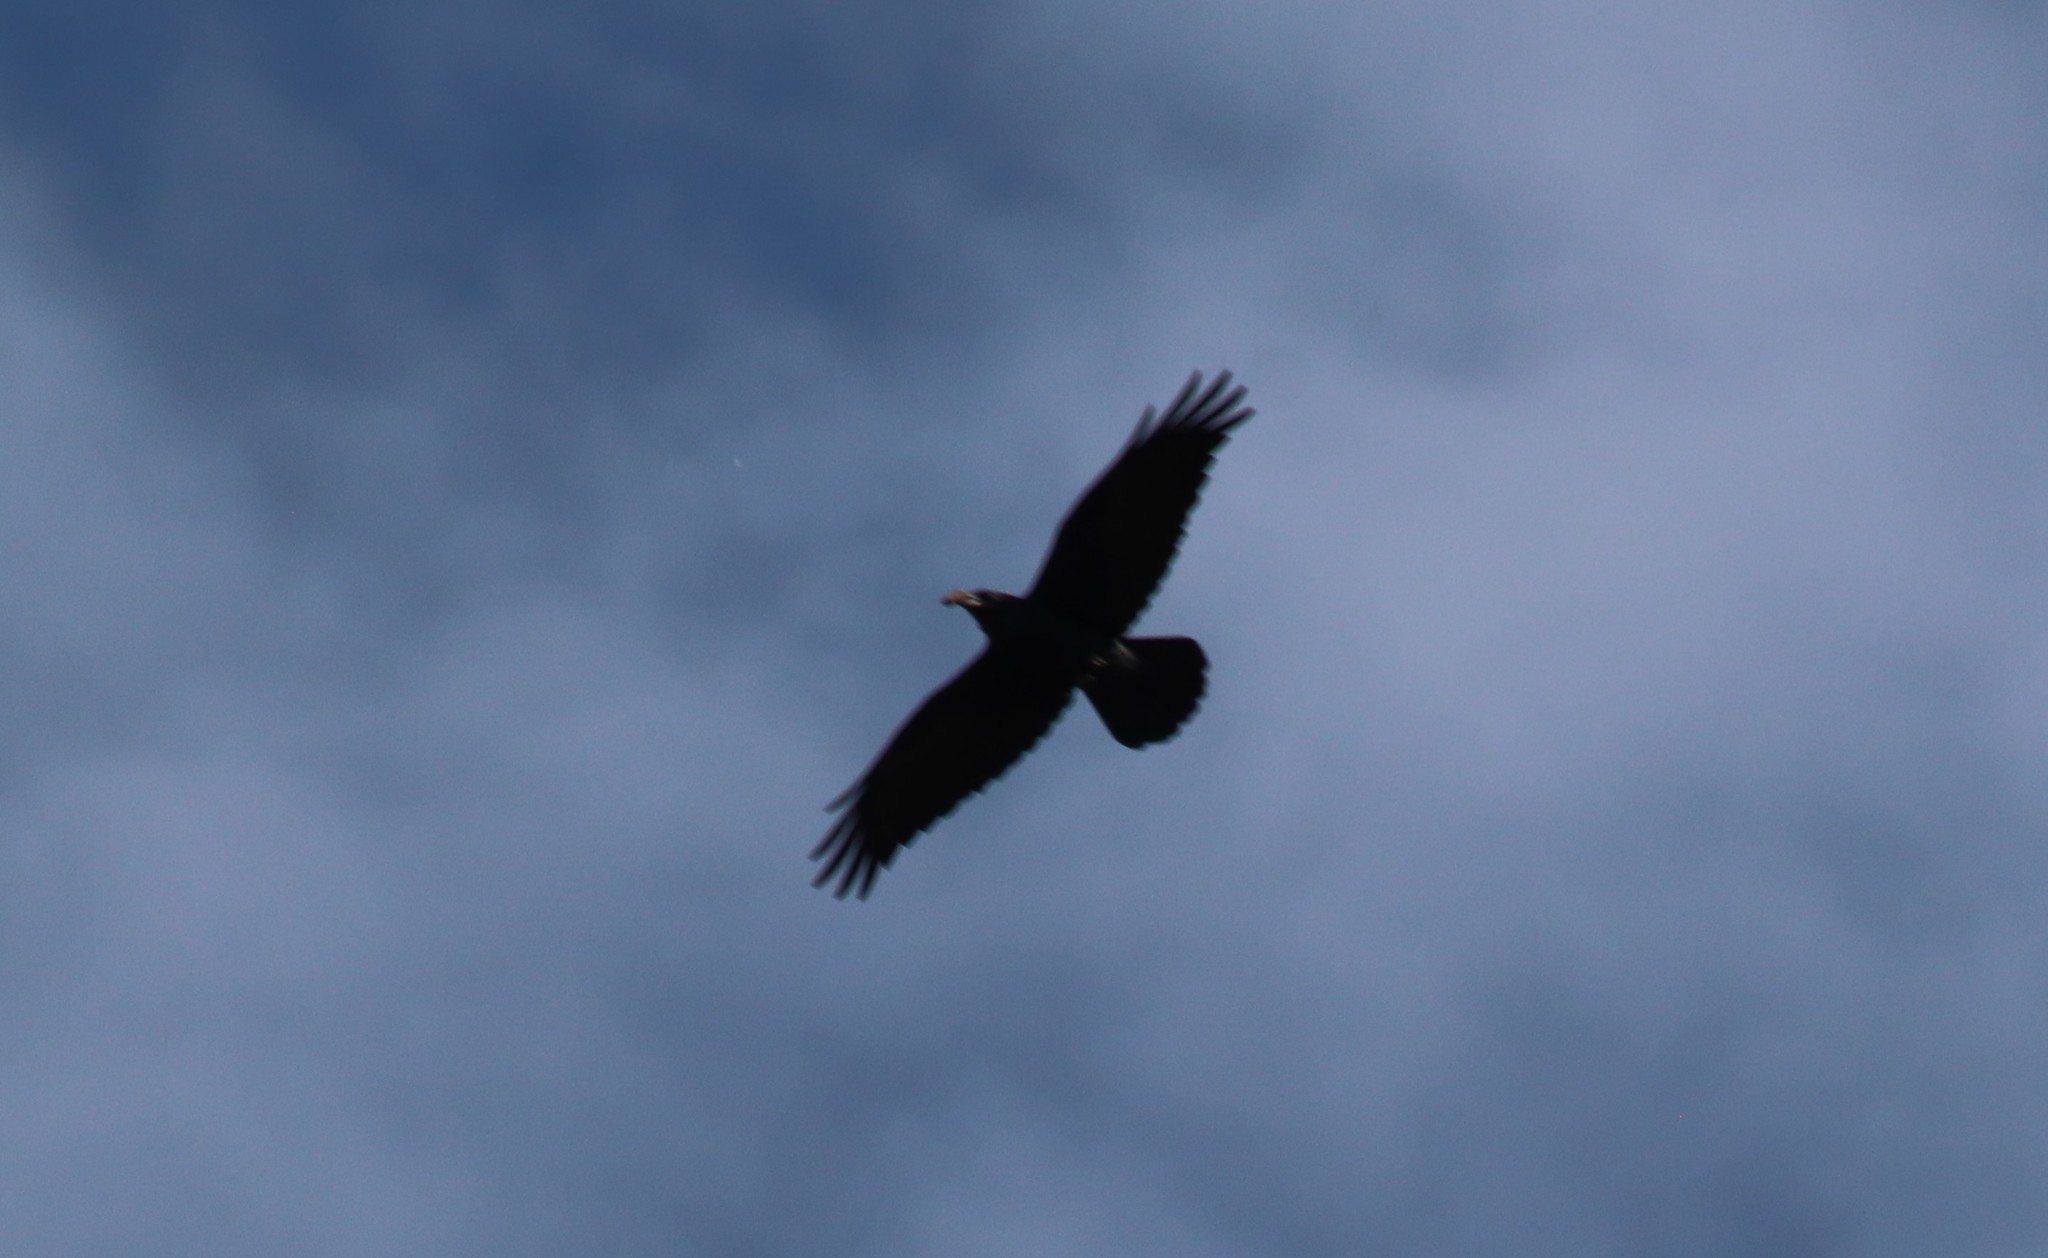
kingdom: Animalia
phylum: Chordata
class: Aves
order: Passeriformes
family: Corvidae
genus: Corvus
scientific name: Corvus corax
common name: Common raven
